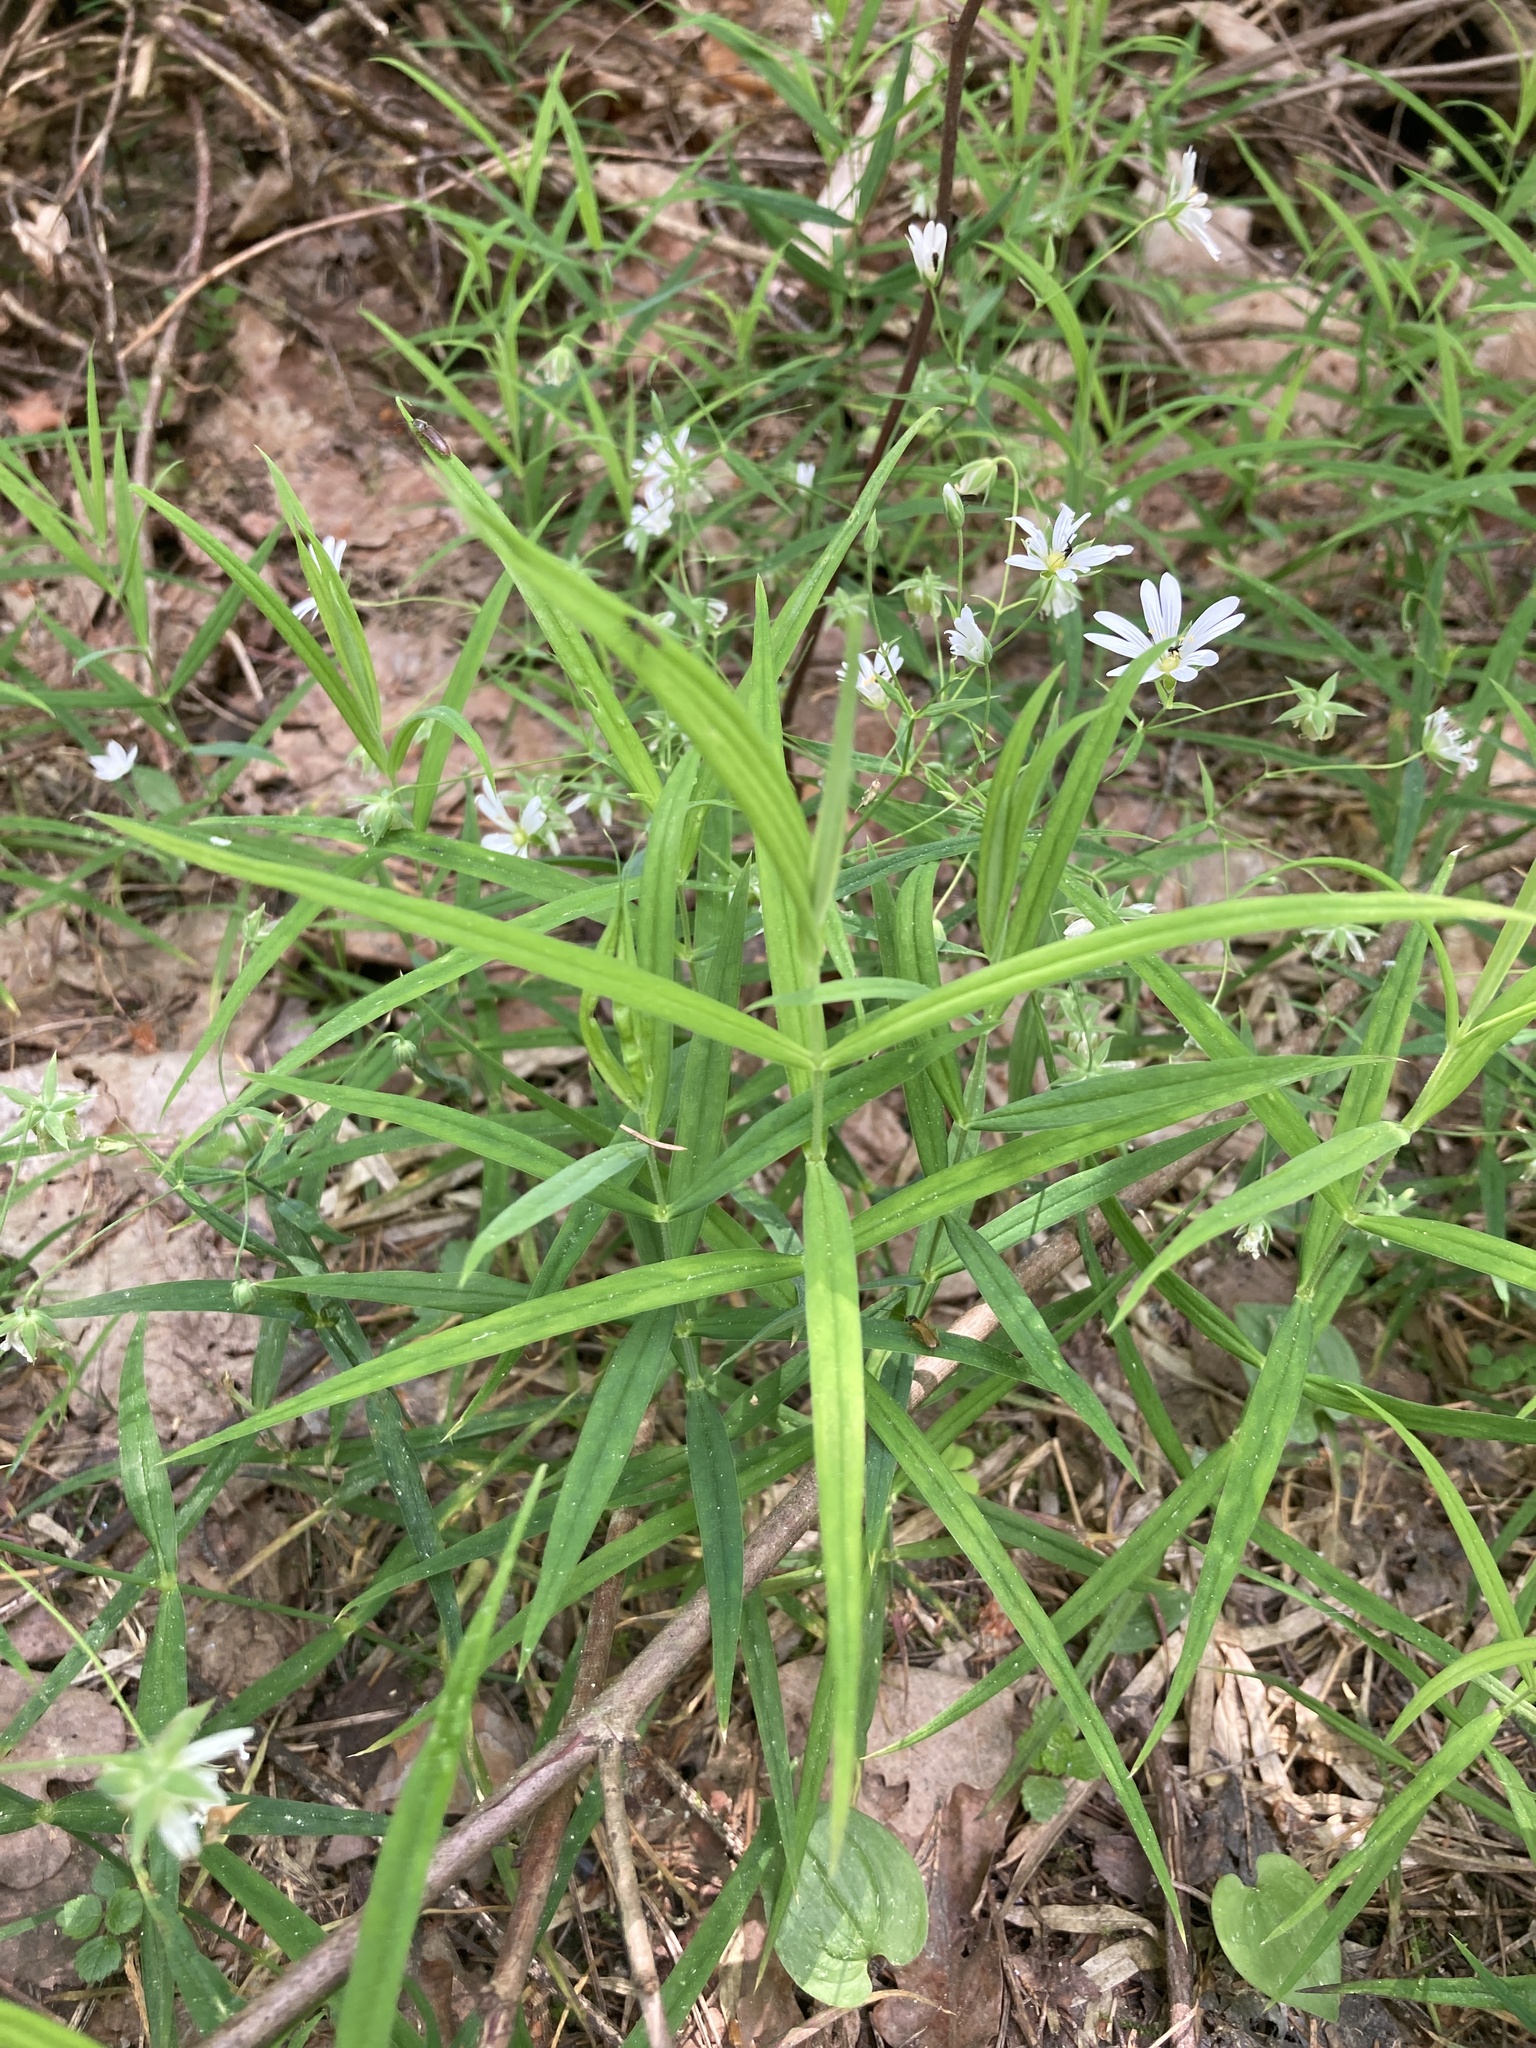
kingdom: Plantae
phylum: Tracheophyta
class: Magnoliopsida
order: Caryophyllales
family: Caryophyllaceae
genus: Rabelera
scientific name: Rabelera holostea
